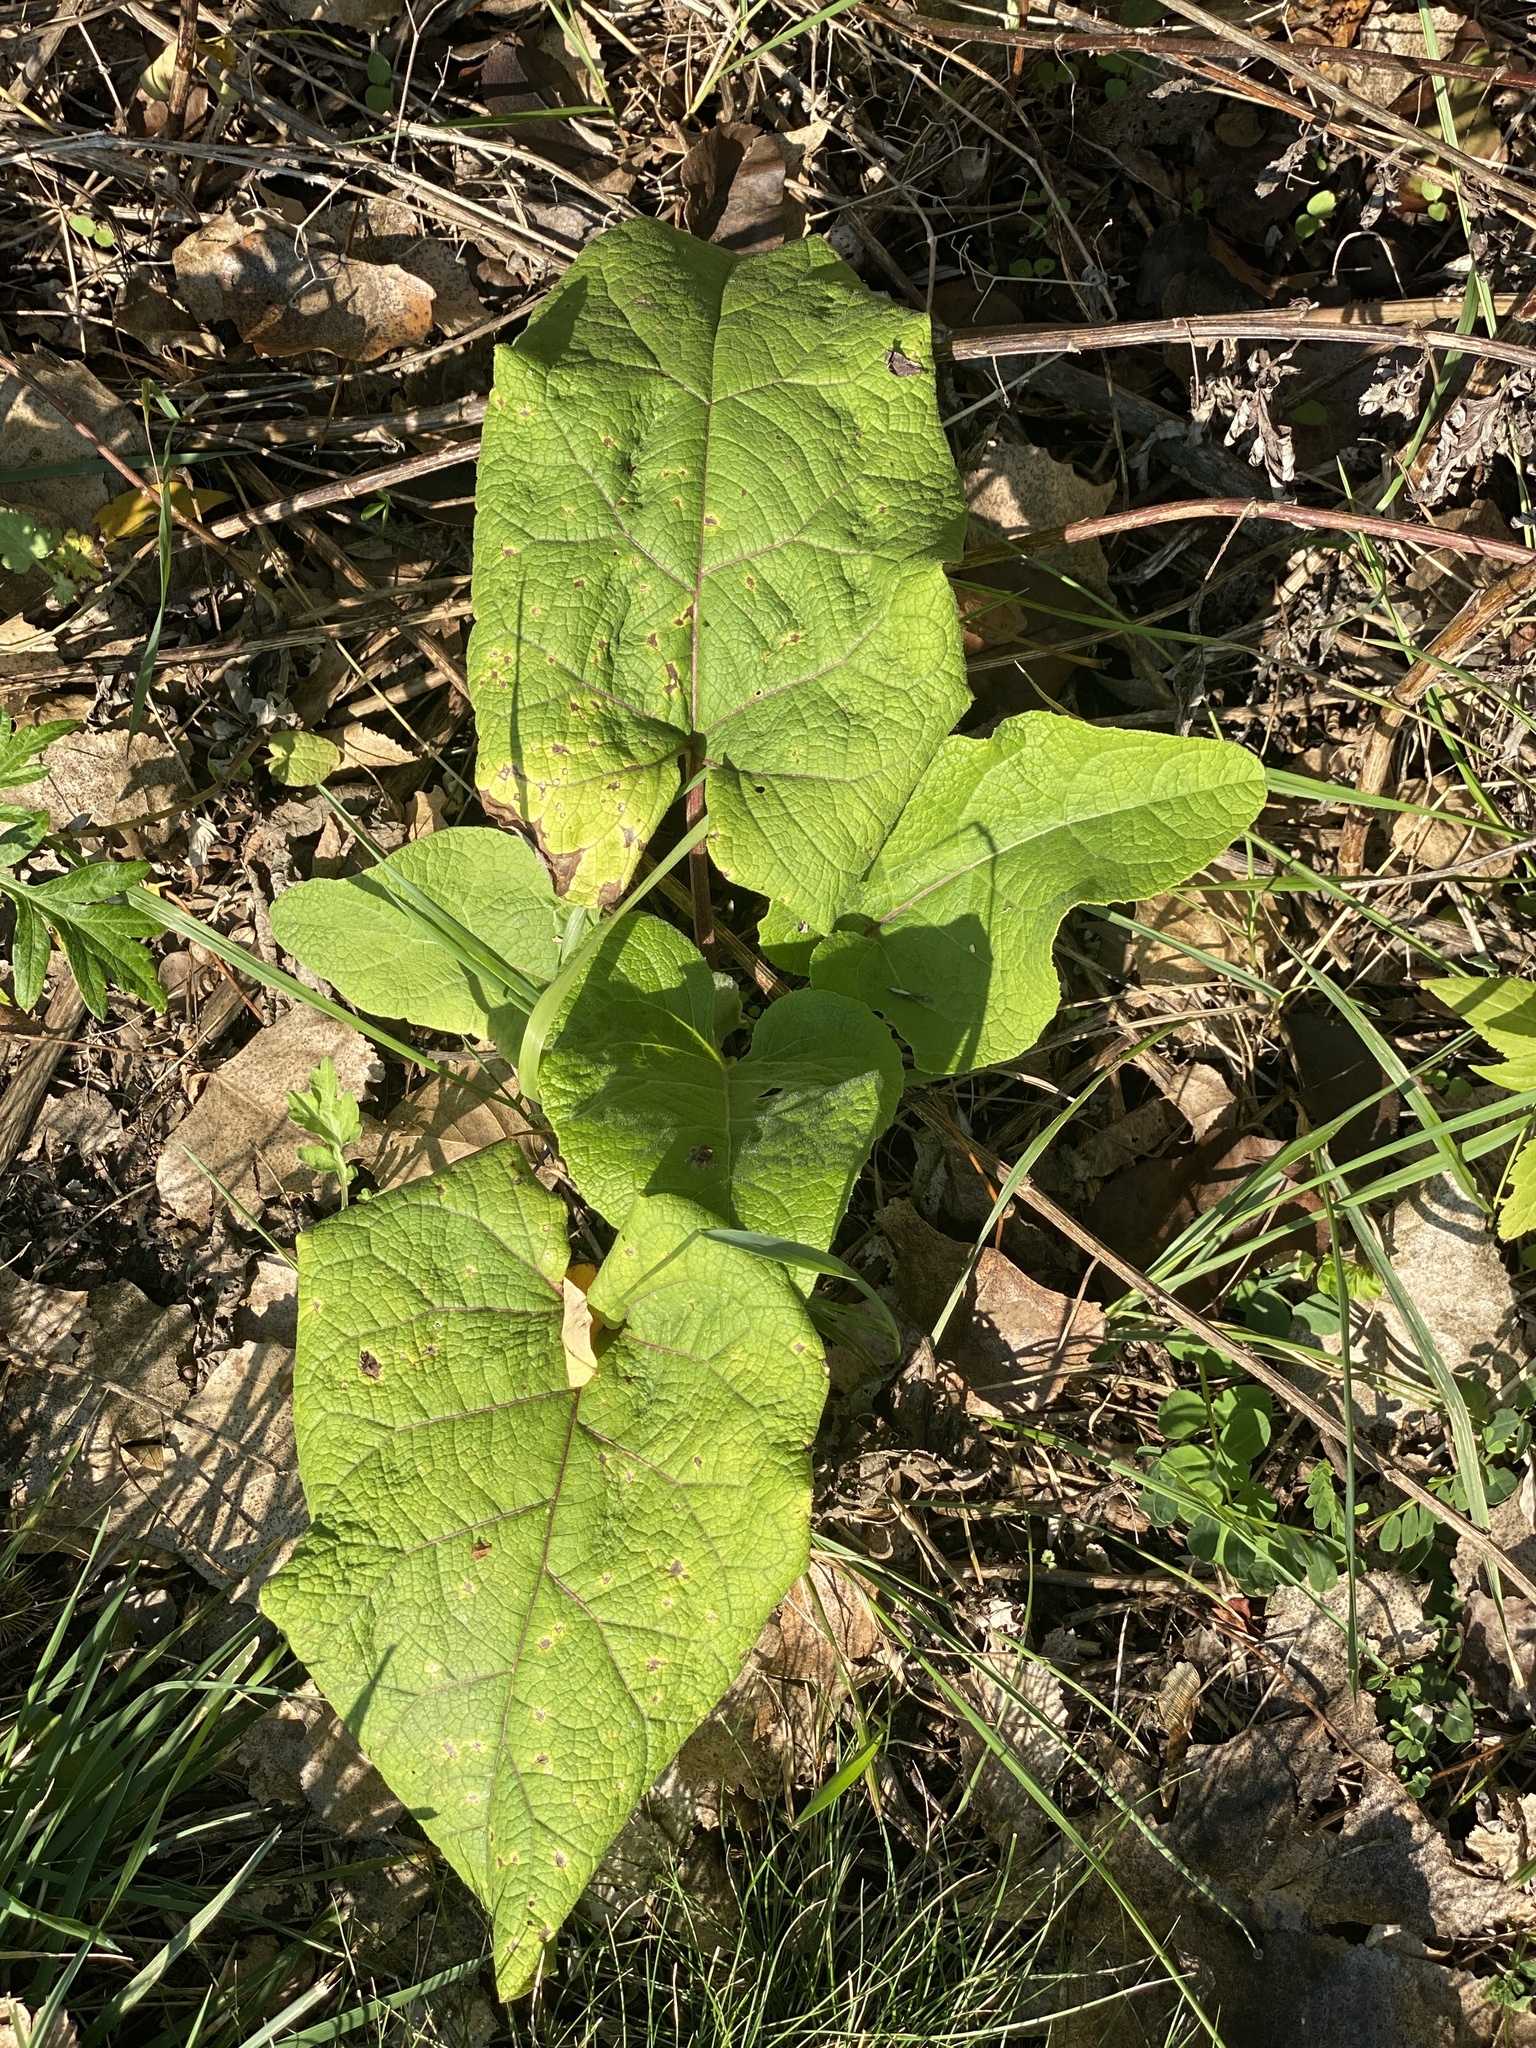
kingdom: Plantae
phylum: Tracheophyta
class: Magnoliopsida
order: Asterales
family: Asteraceae
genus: Arctium
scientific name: Arctium
